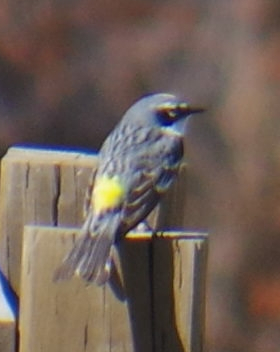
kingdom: Animalia
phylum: Chordata
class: Aves
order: Passeriformes
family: Parulidae
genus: Setophaga
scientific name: Setophaga coronata
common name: Myrtle warbler
